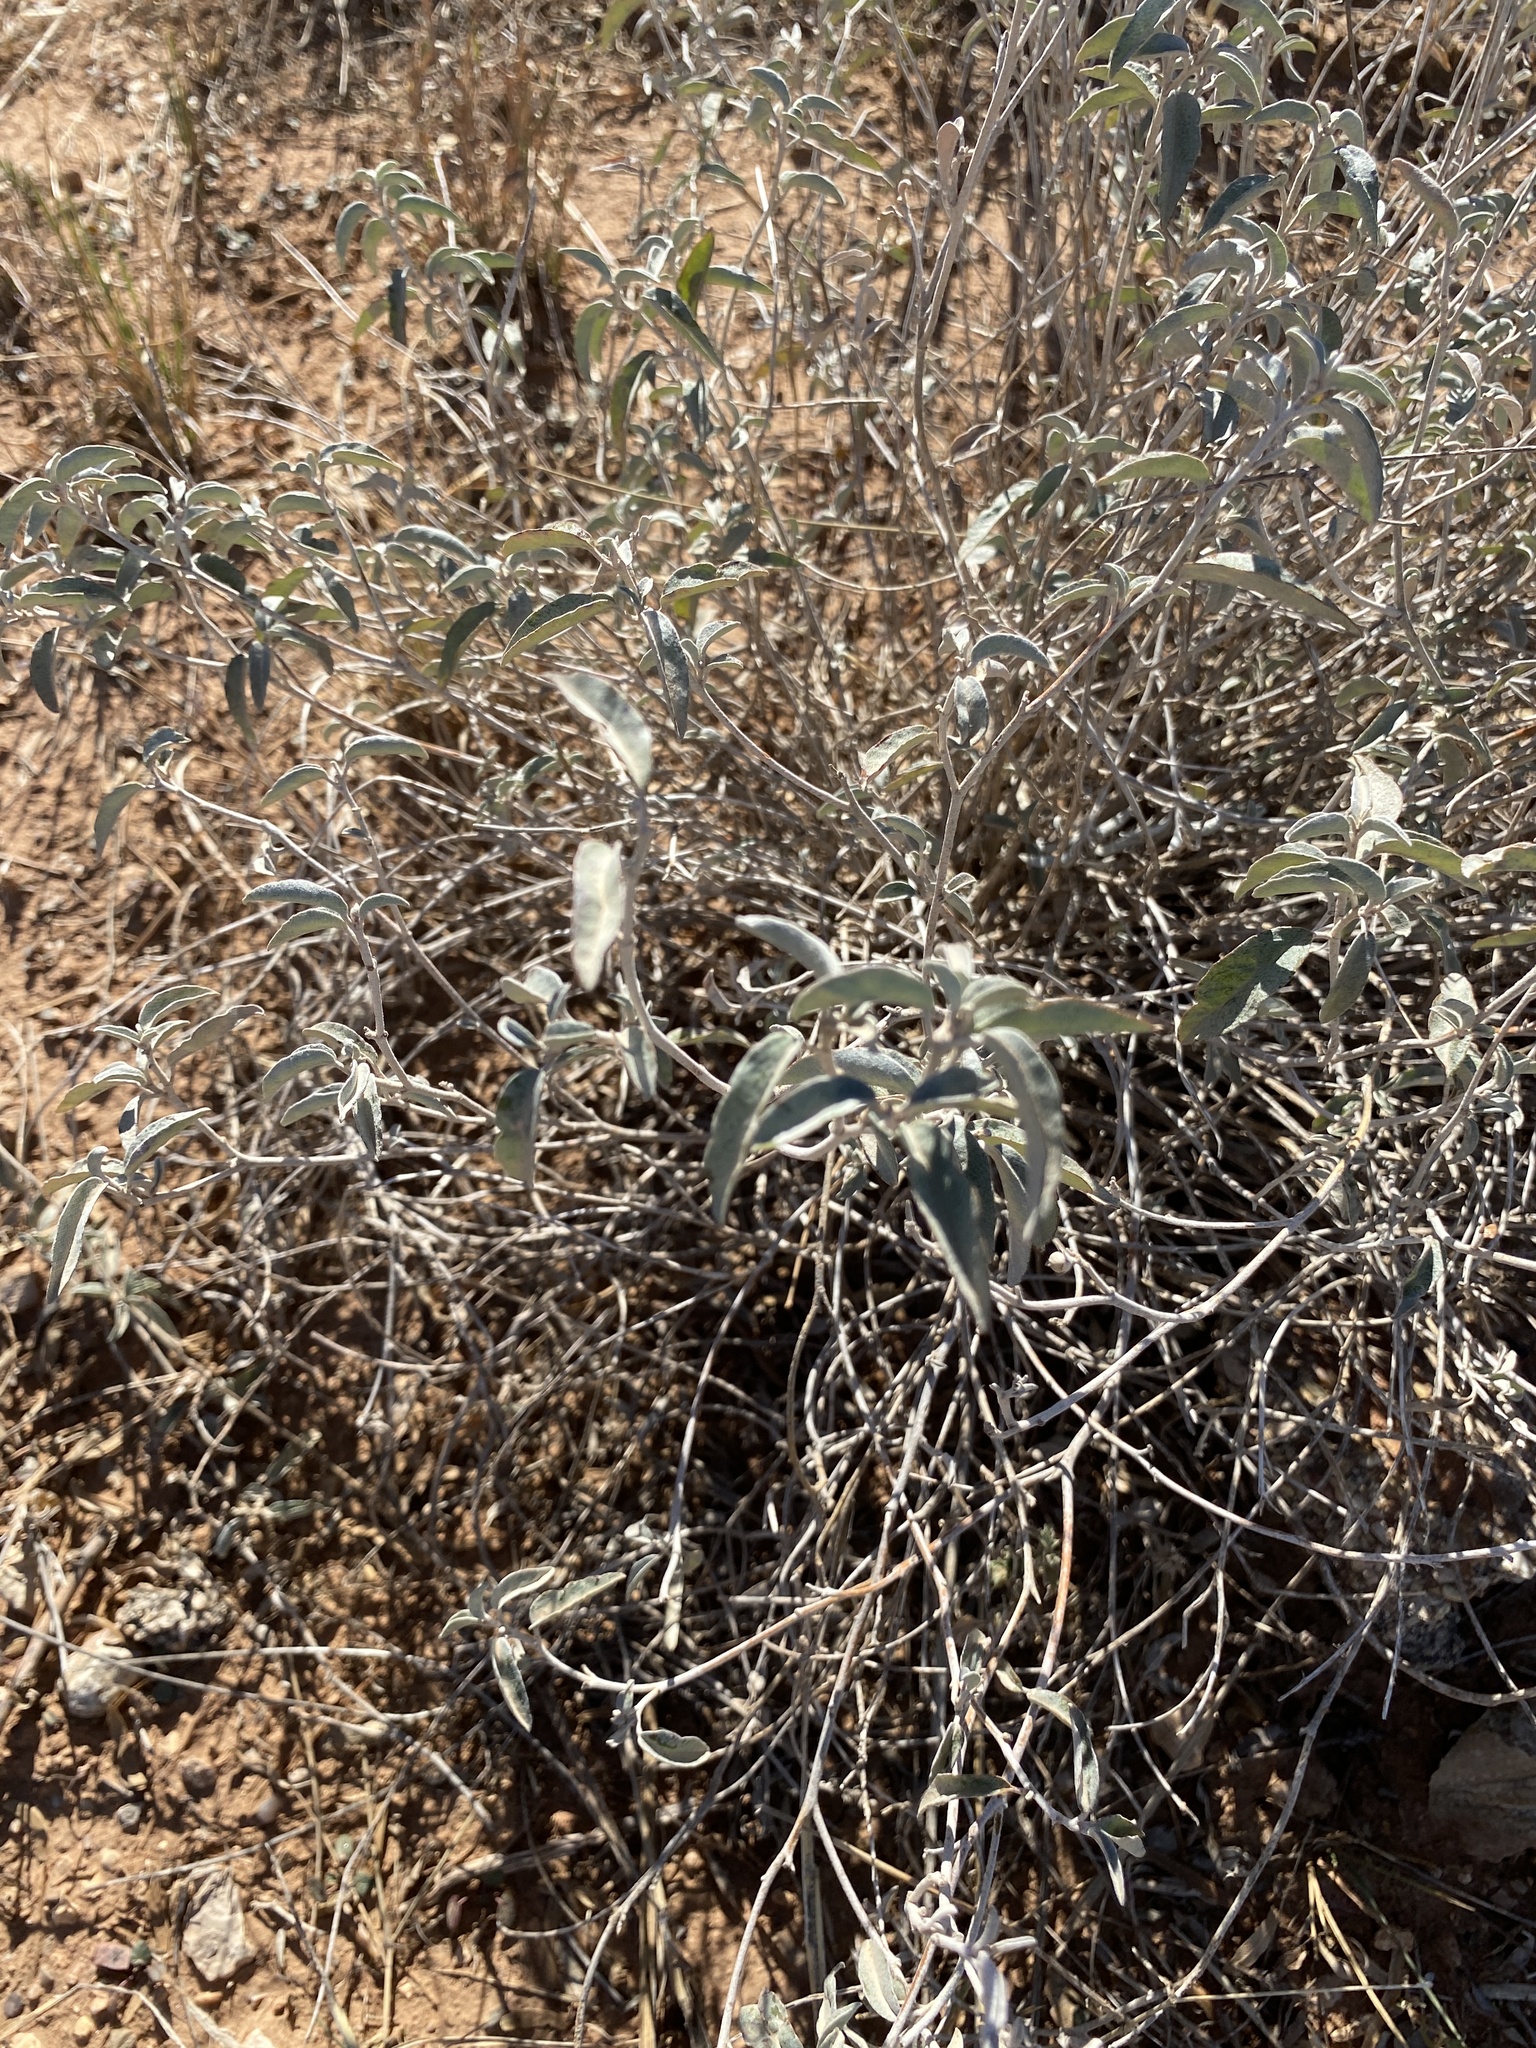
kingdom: Plantae
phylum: Tracheophyta
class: Magnoliopsida
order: Malpighiales
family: Euphorbiaceae
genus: Croton
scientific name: Croton dioicus
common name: Grassland croton
